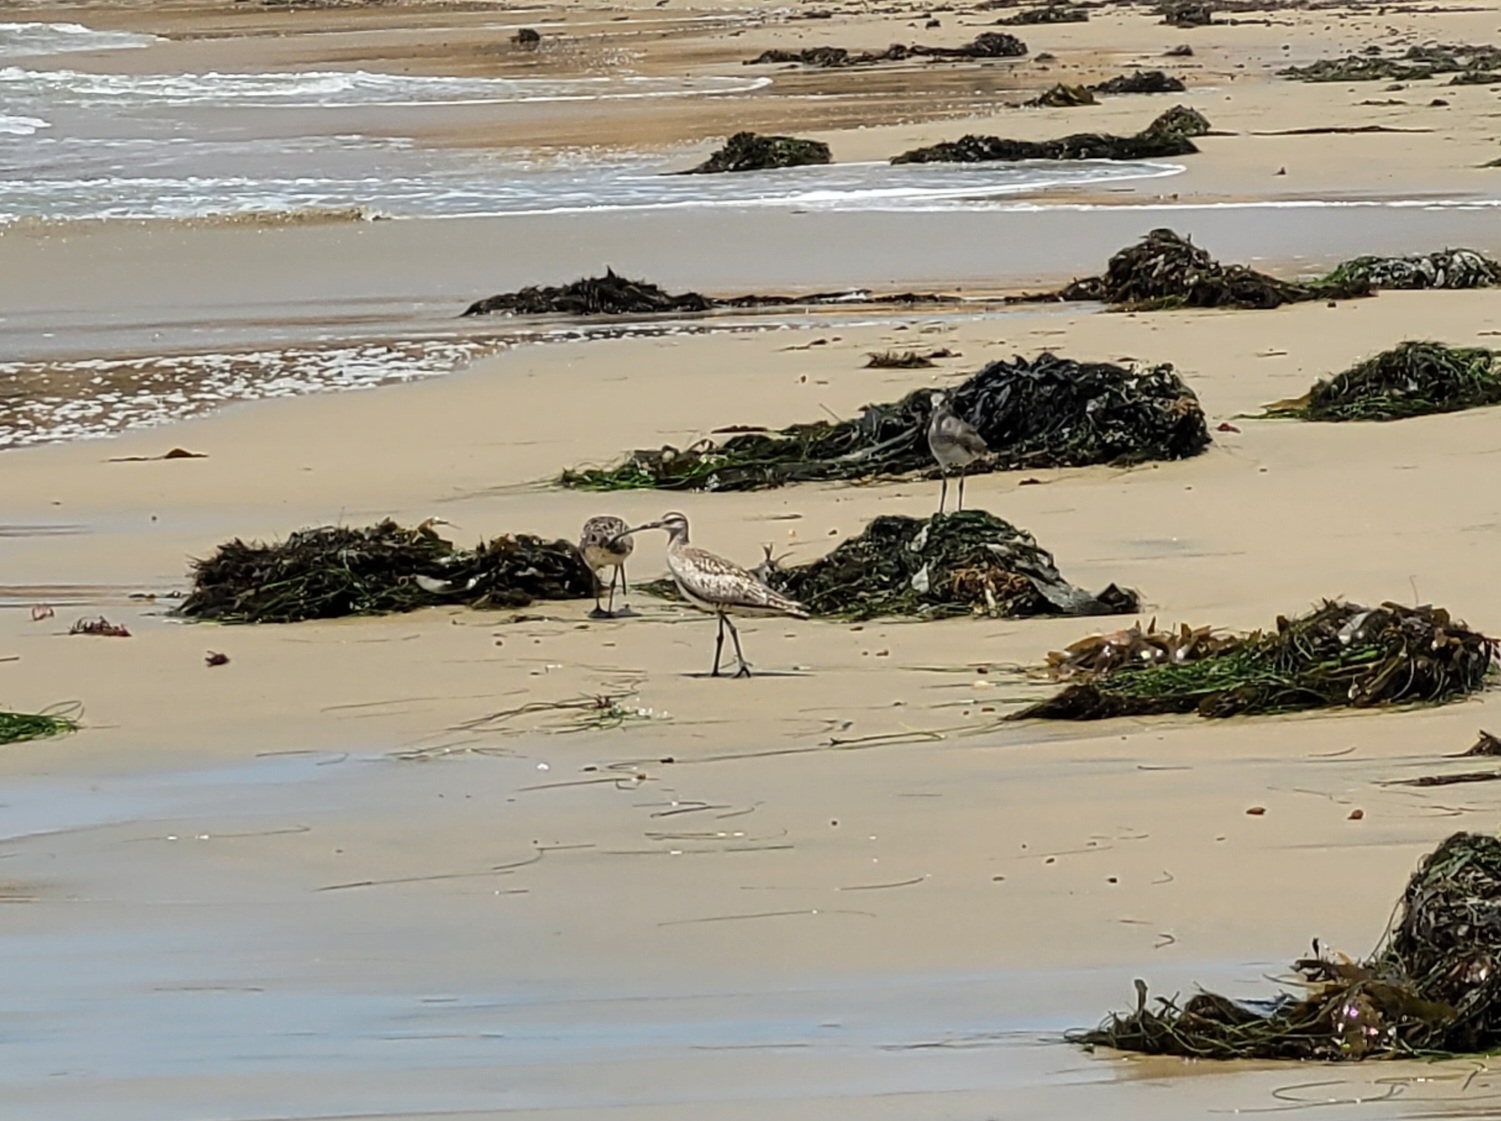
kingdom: Animalia
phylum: Chordata
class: Aves
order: Charadriiformes
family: Scolopacidae
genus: Numenius
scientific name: Numenius phaeopus
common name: Whimbrel
